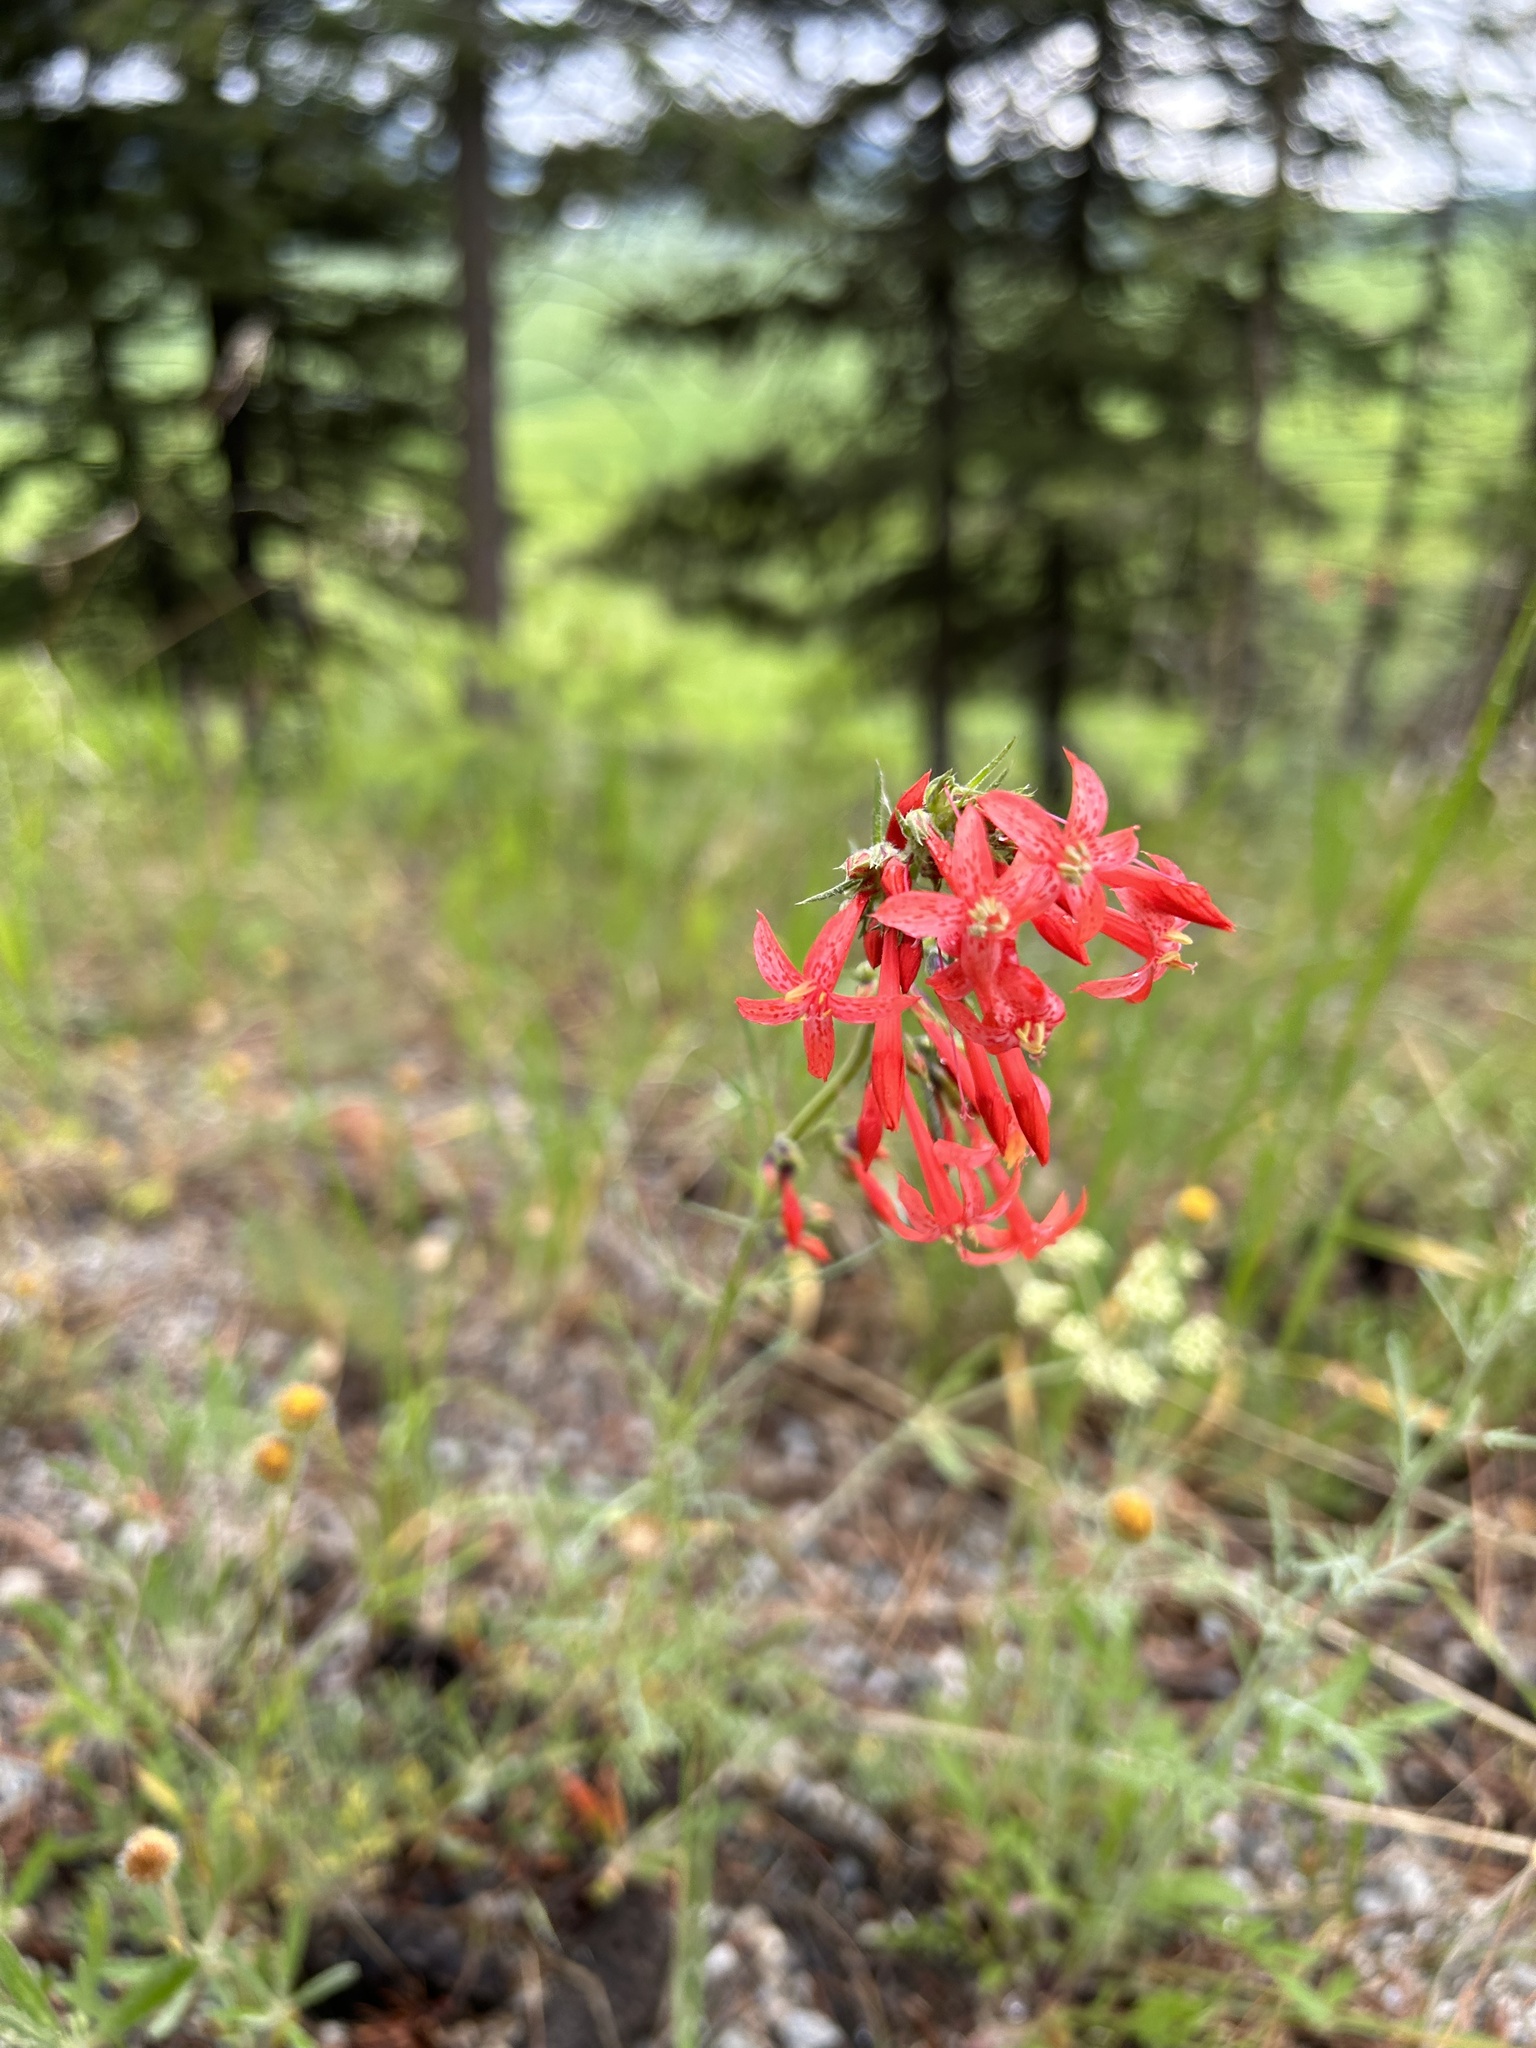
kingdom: Plantae
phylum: Tracheophyta
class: Magnoliopsida
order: Ericales
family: Polemoniaceae
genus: Ipomopsis
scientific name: Ipomopsis aggregata
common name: Scarlet gilia
